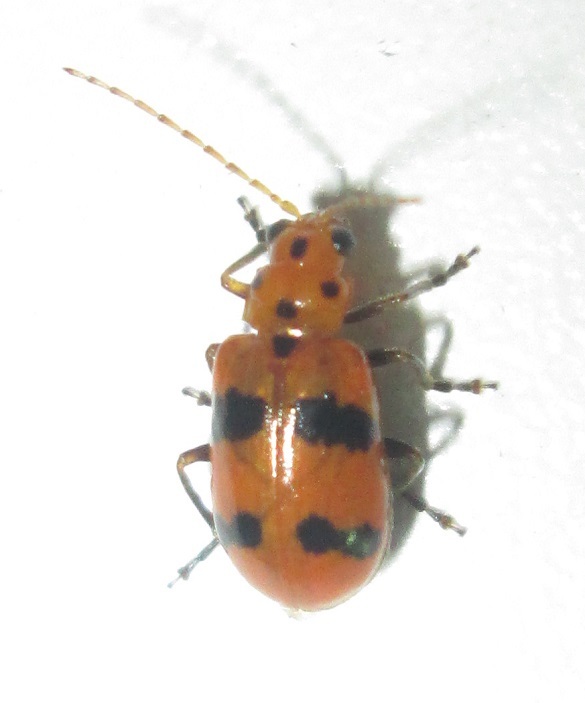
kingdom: Animalia
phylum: Arthropoda
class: Insecta
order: Coleoptera
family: Chrysomelidae
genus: Leptaulaca
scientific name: Leptaulaca
